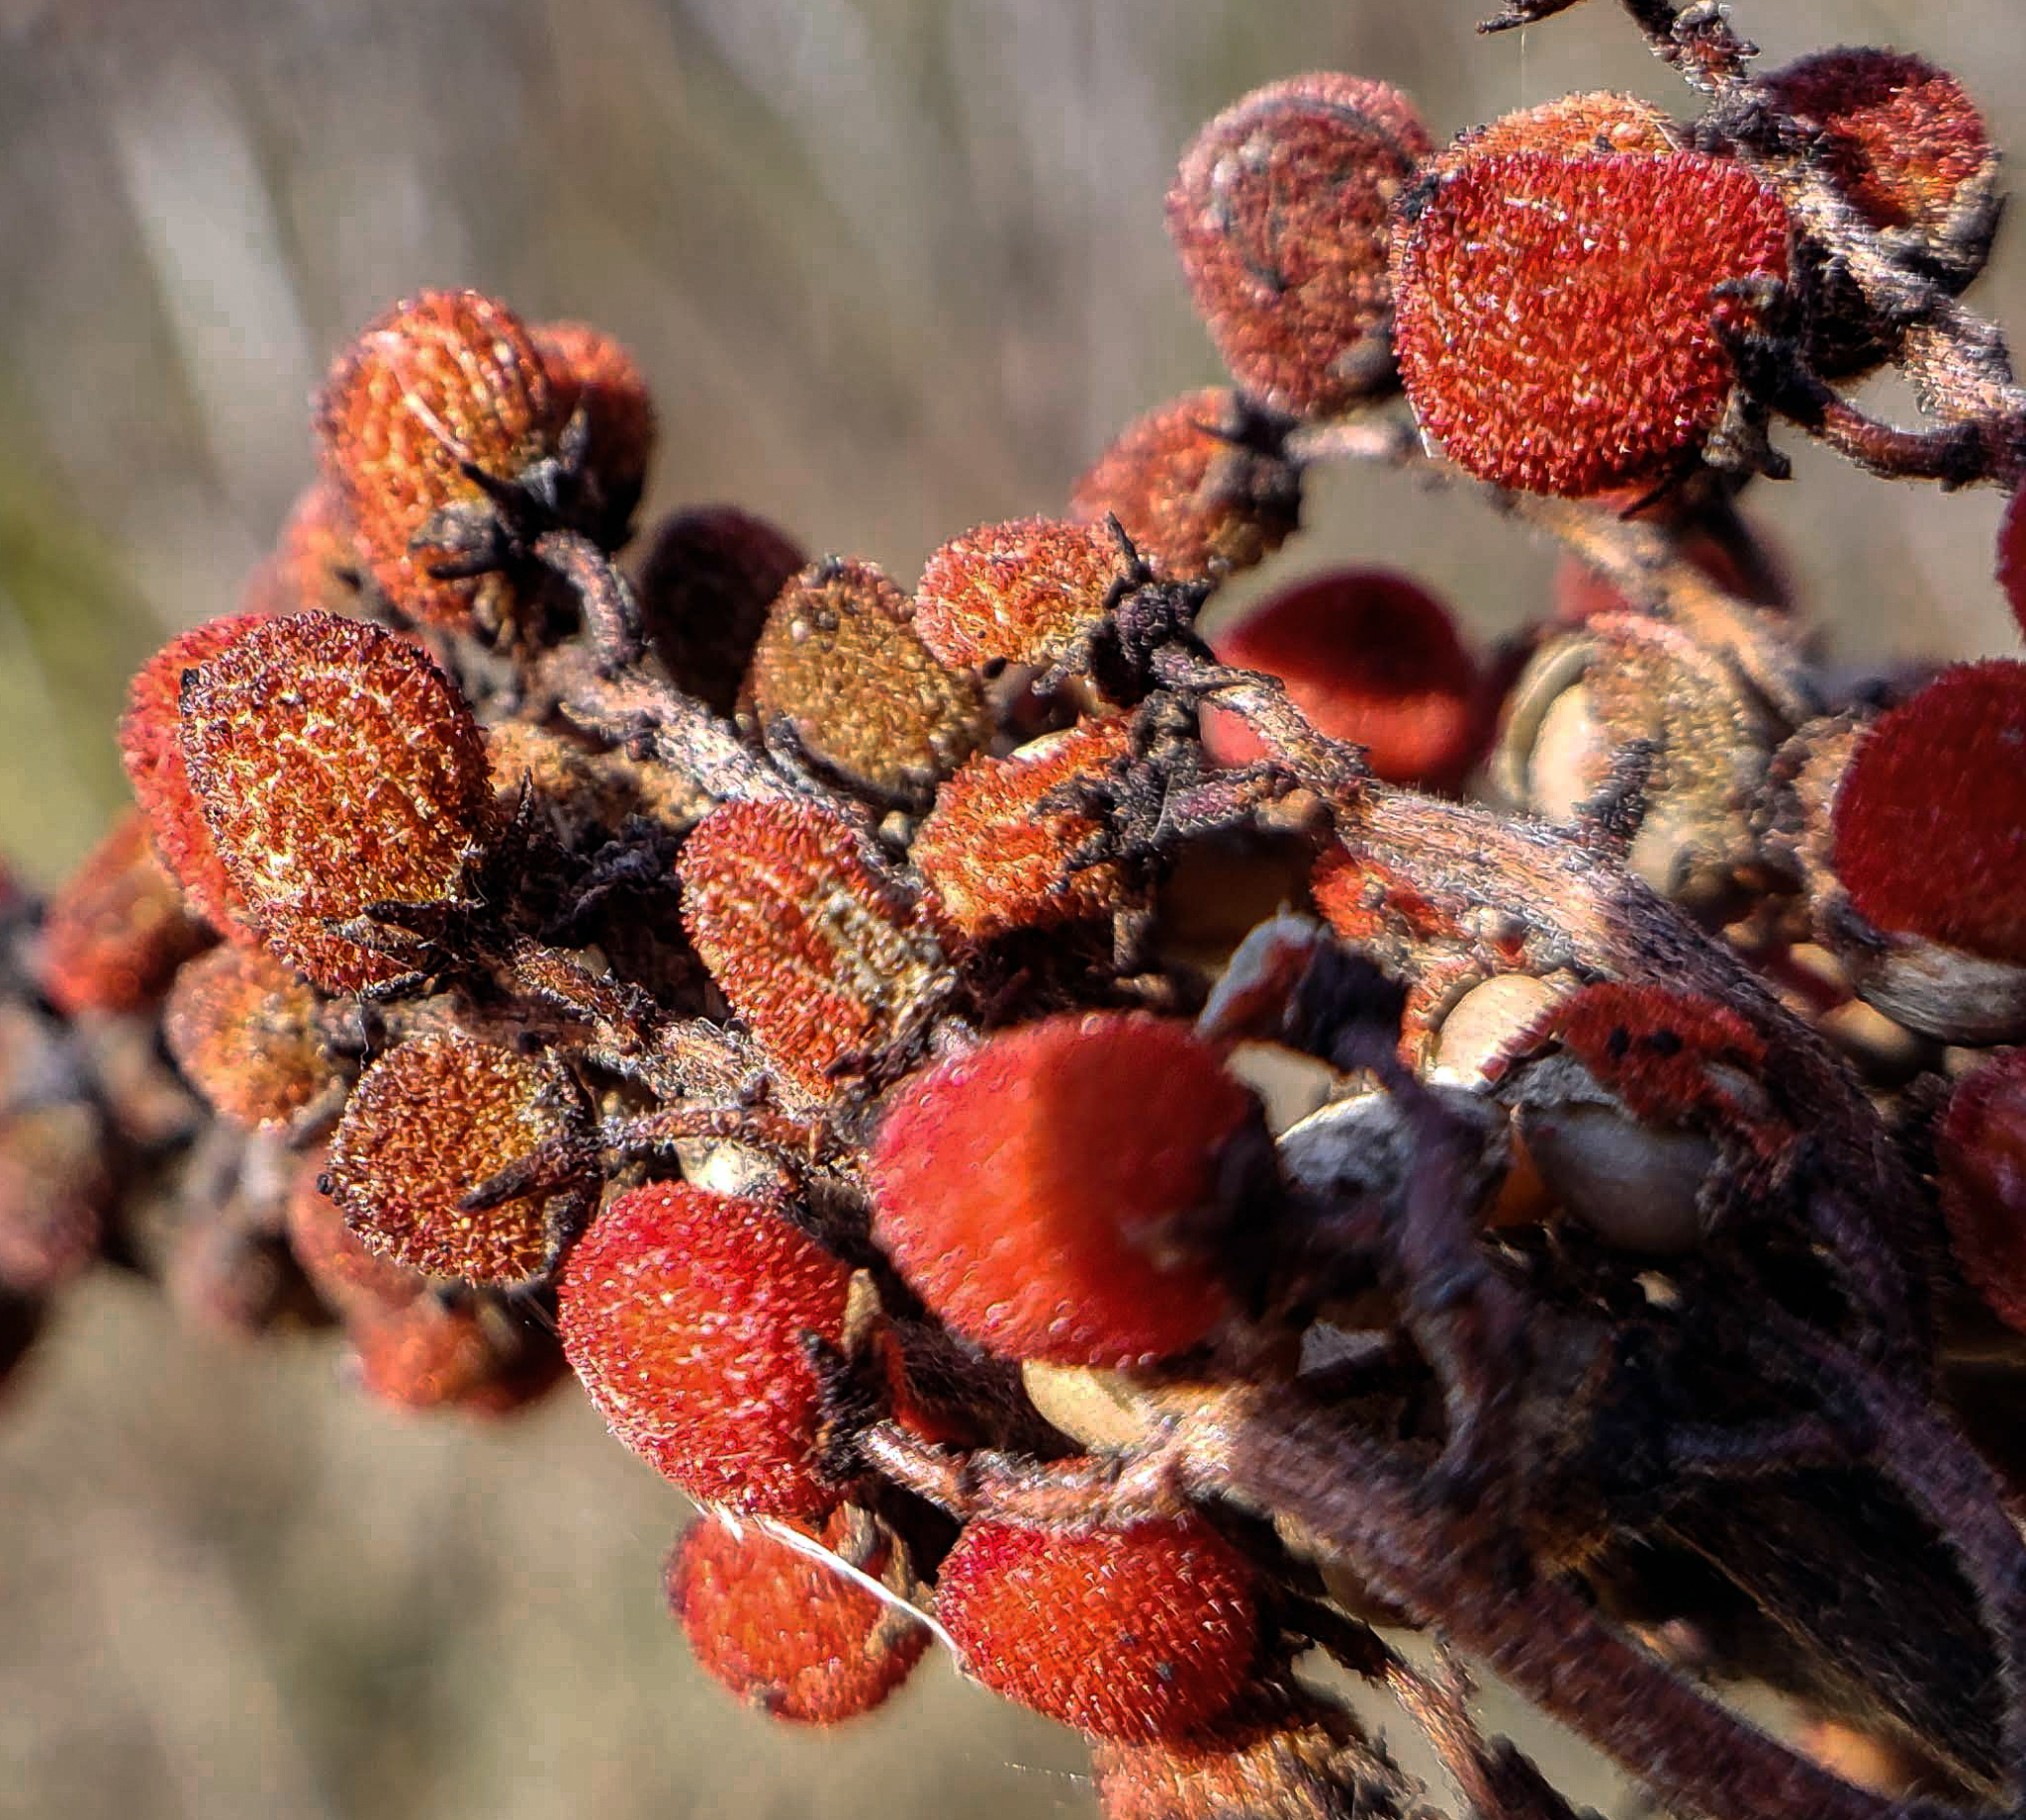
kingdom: Plantae
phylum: Tracheophyta
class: Magnoliopsida
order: Sapindales
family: Anacardiaceae
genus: Rhus
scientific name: Rhus glabra
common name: Scarlet sumac
